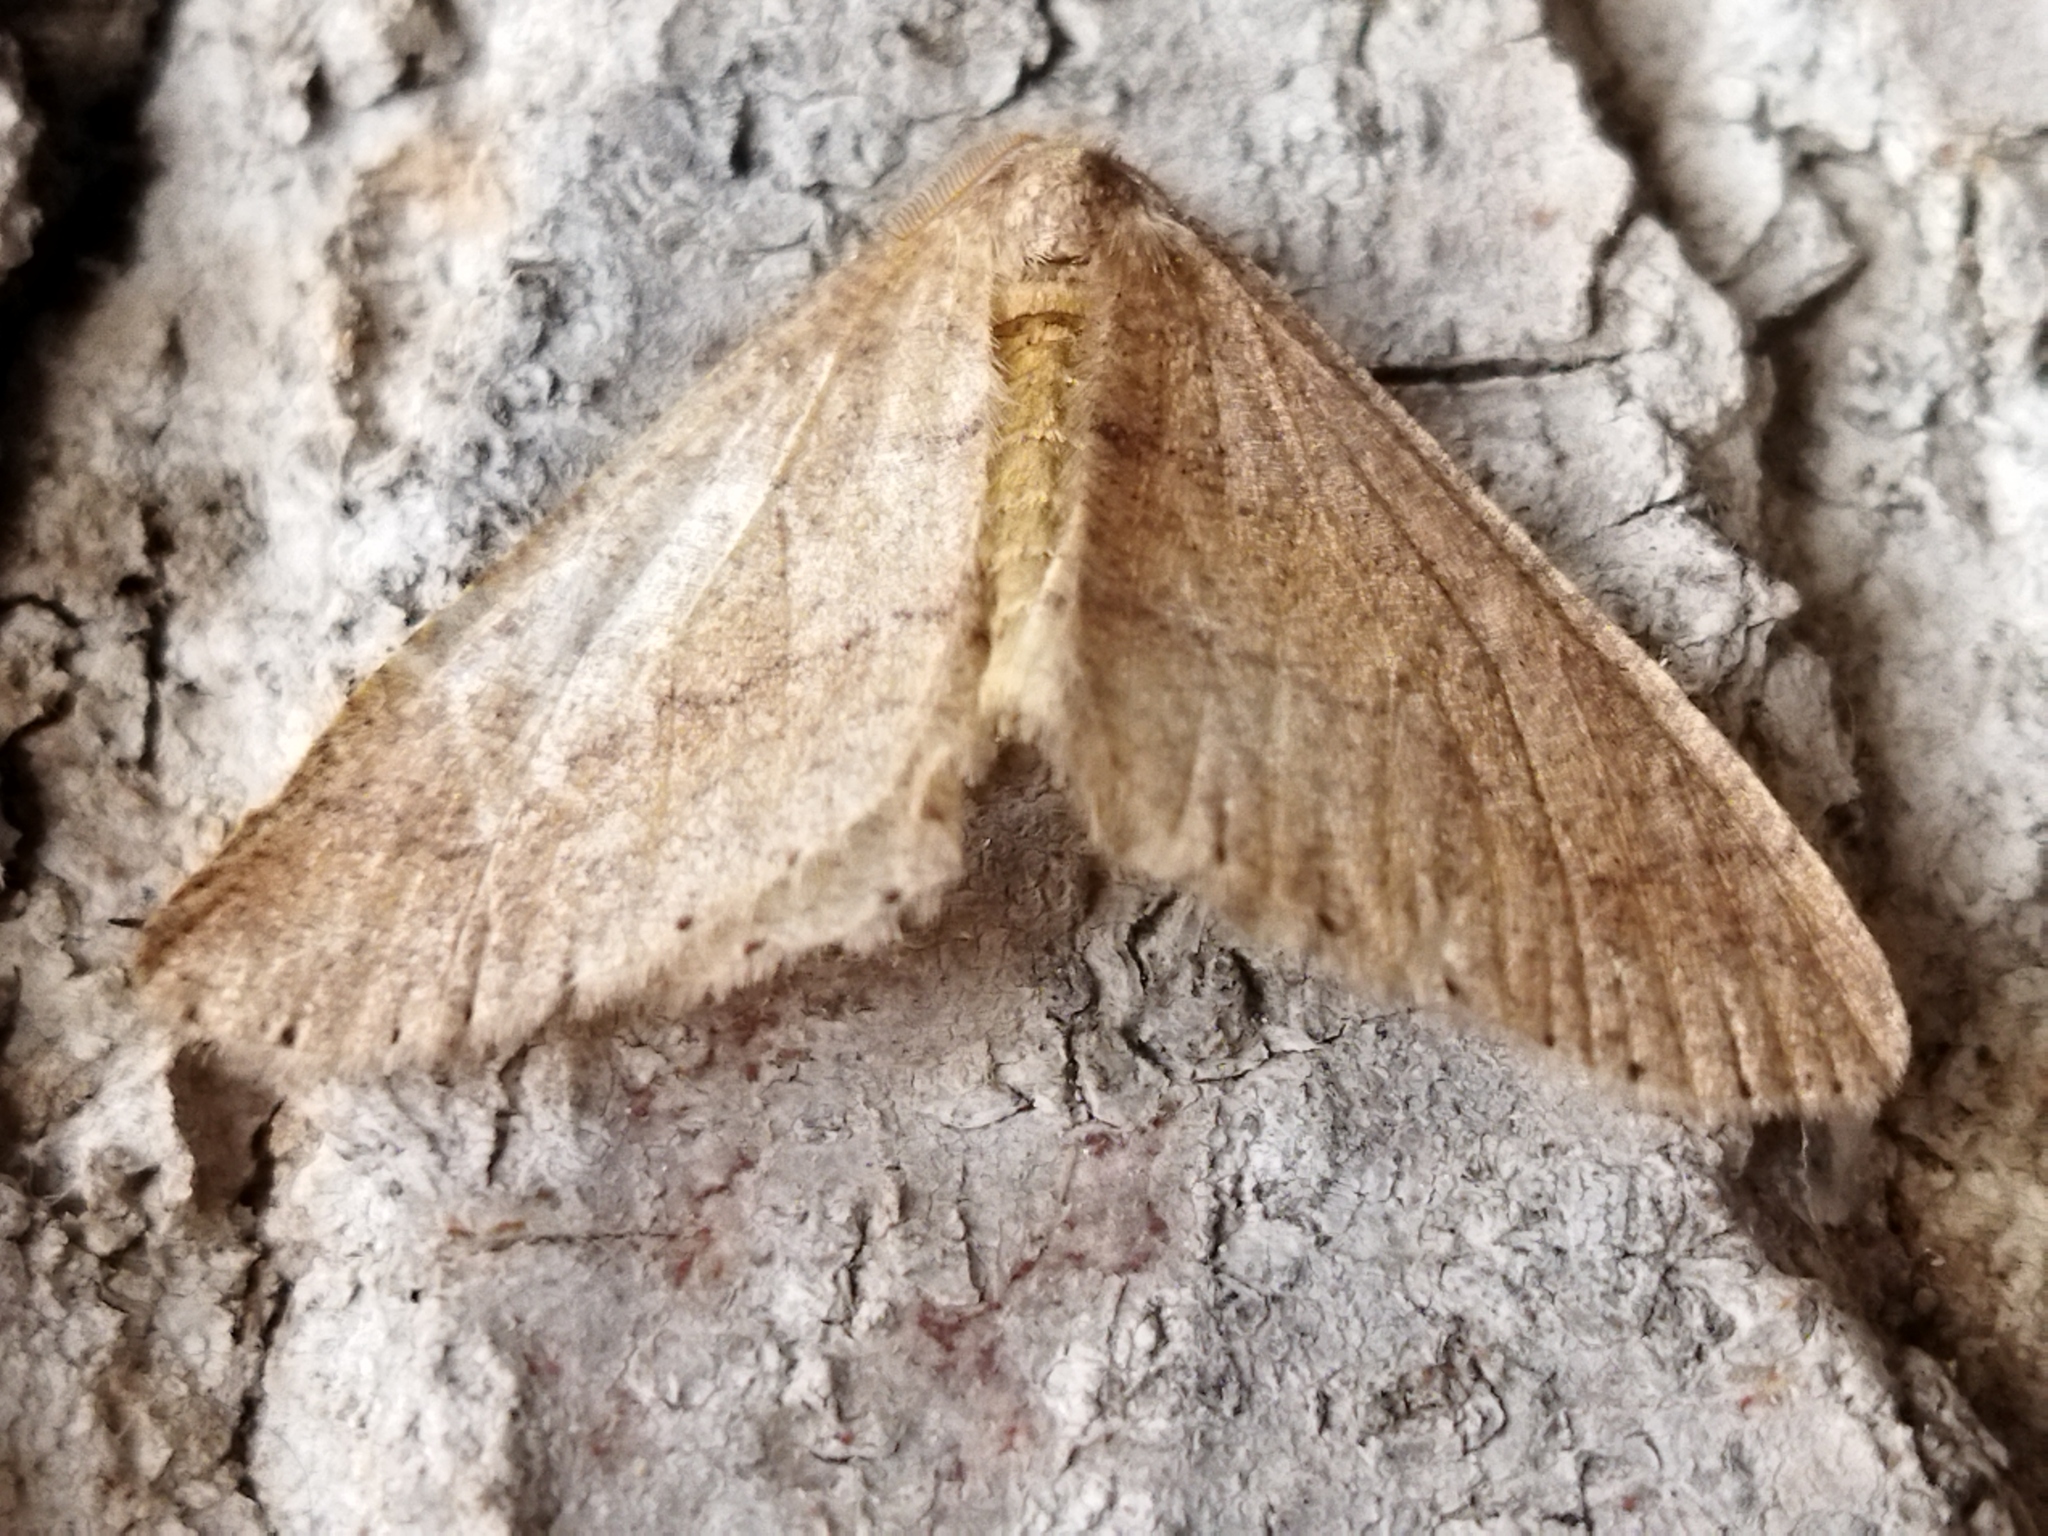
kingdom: Animalia
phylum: Arthropoda
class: Insecta
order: Lepidoptera
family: Geometridae
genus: Agriopis
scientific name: Agriopis marginaria
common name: Dotted border
